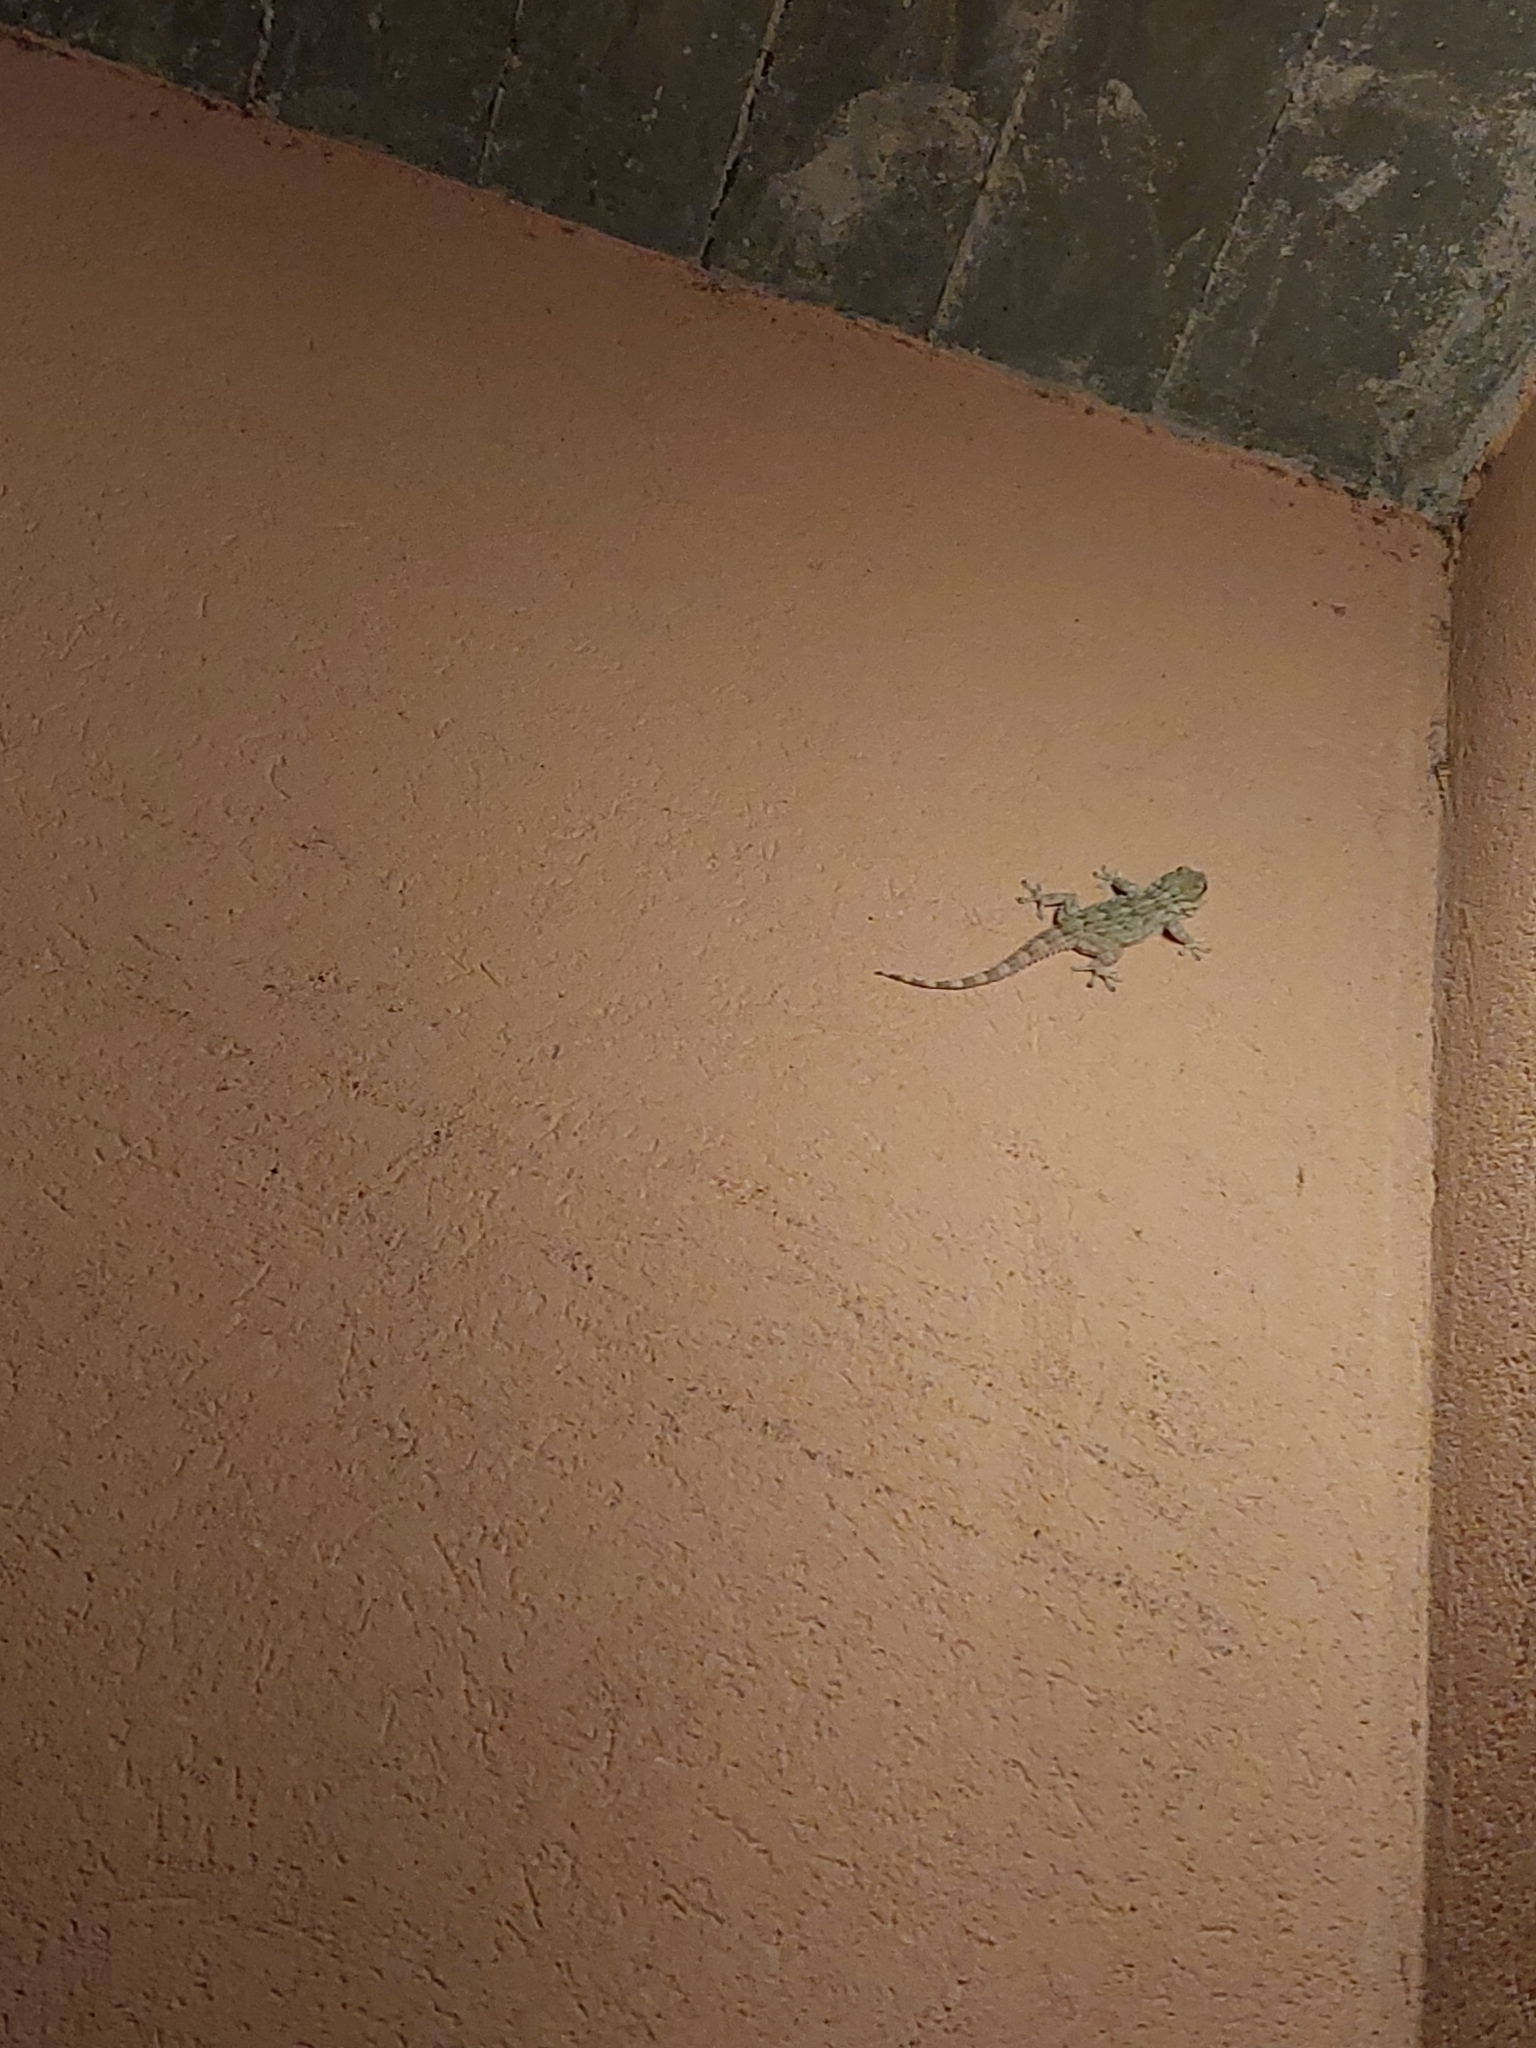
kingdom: Animalia
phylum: Chordata
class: Squamata
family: Phyllodactylidae
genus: Tarentola
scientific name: Tarentola mauritanica
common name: Moorish gecko
